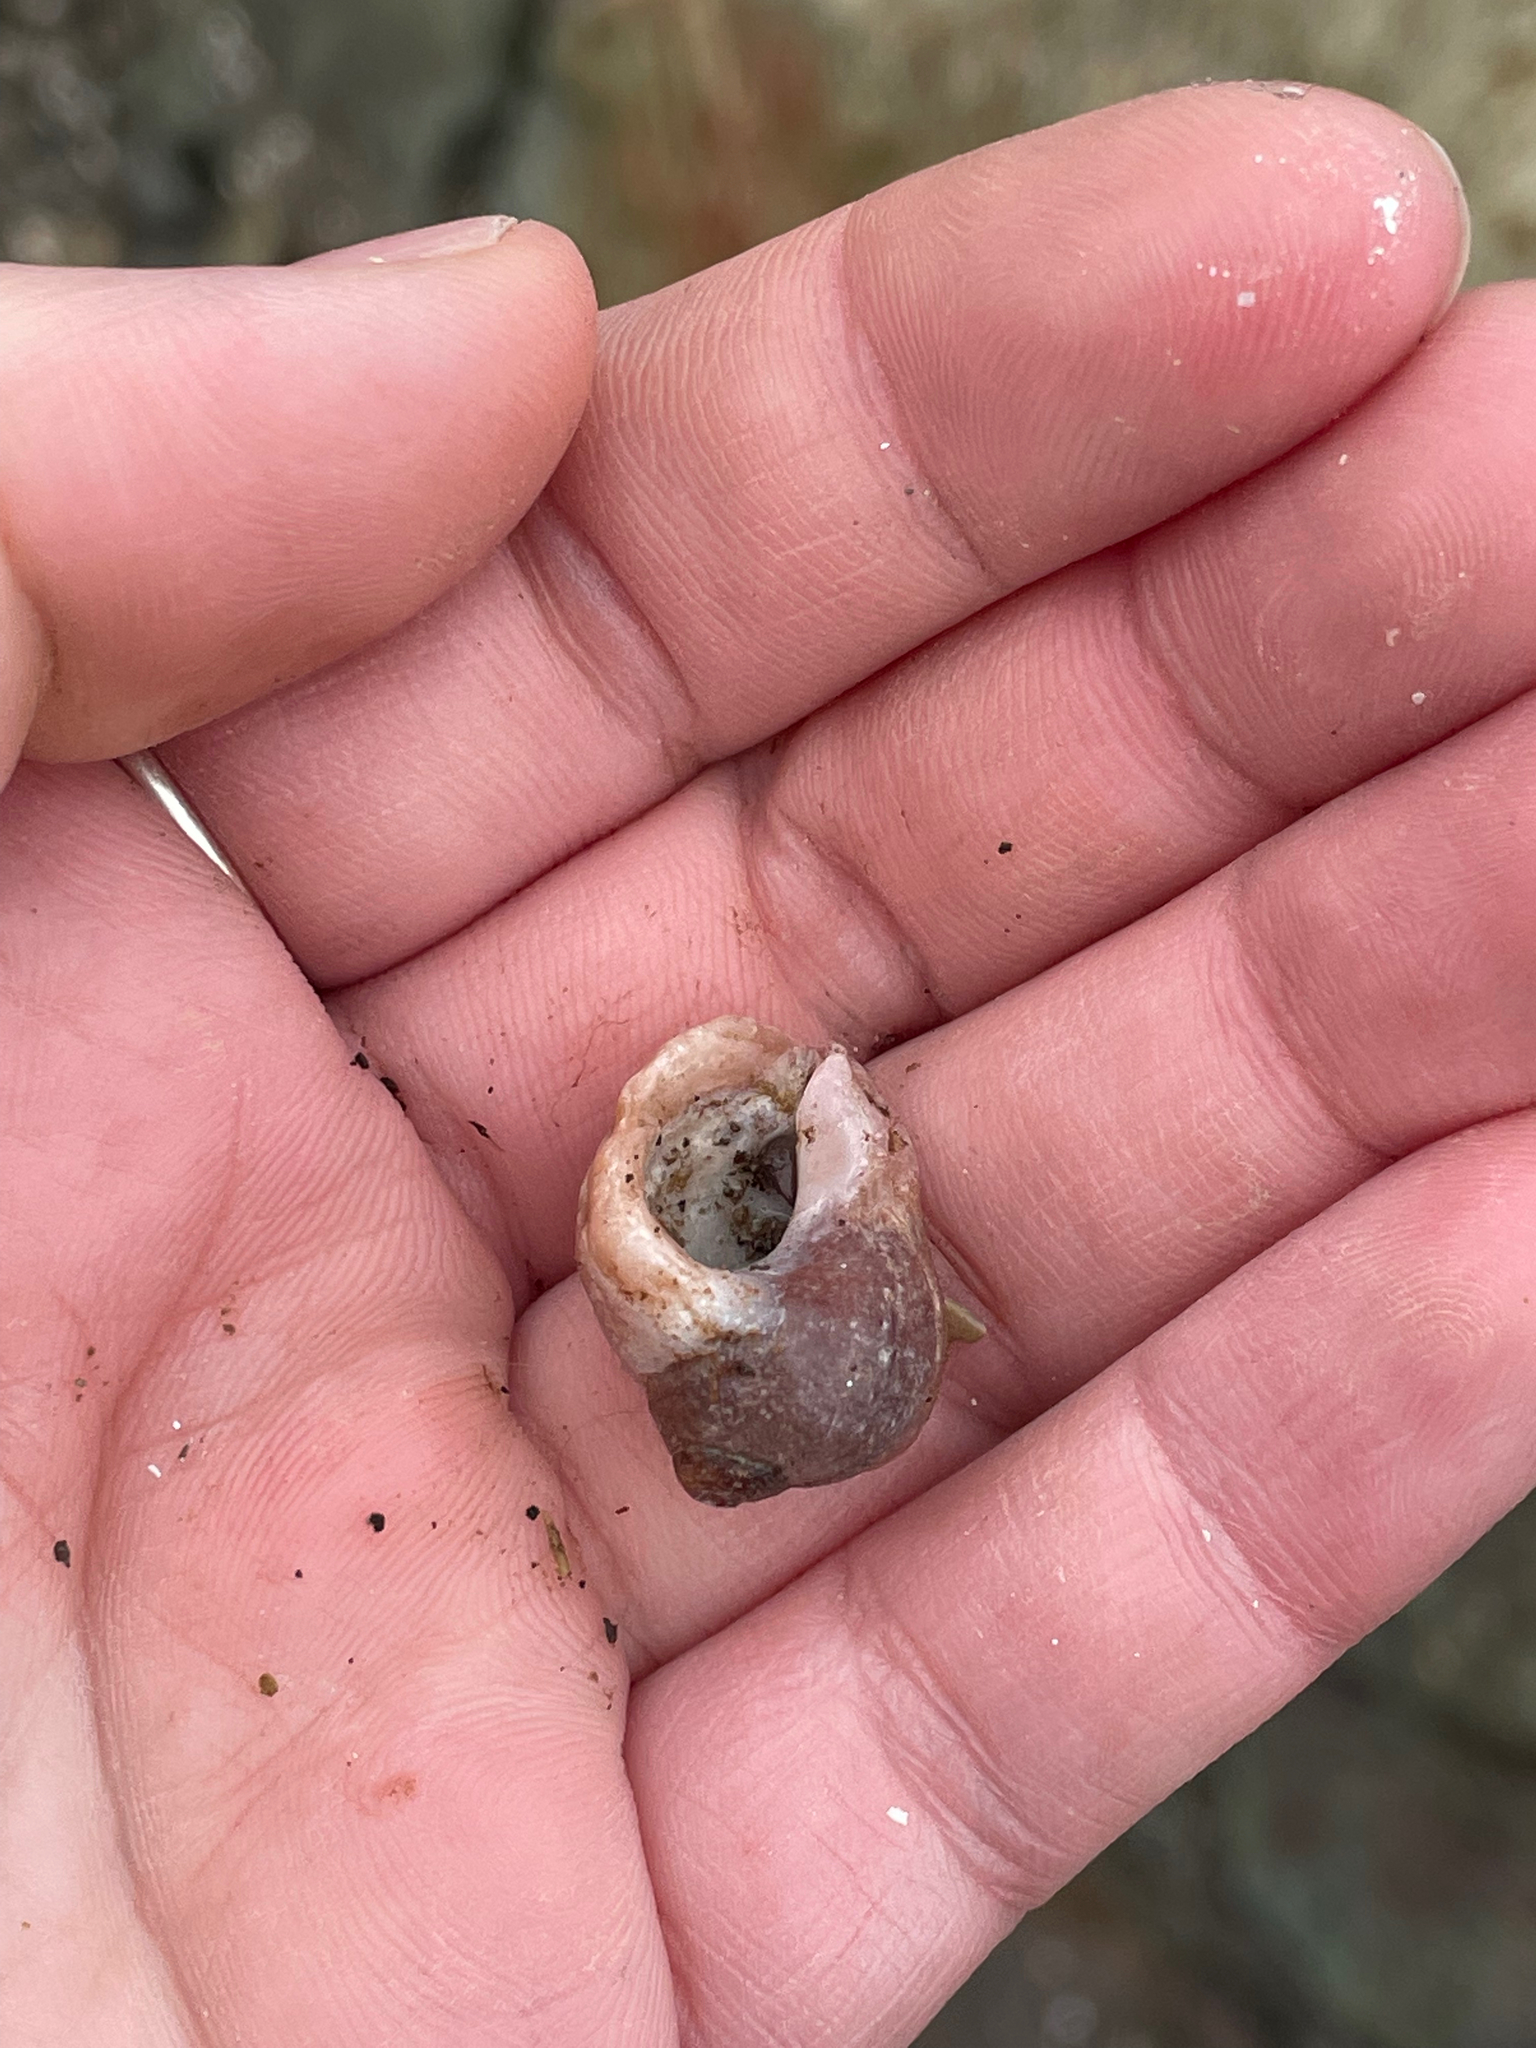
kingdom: Animalia
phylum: Mollusca
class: Gastropoda
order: Neogastropoda
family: Muricidae
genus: Nucella
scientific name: Nucella lapillus
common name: Dog whelk
